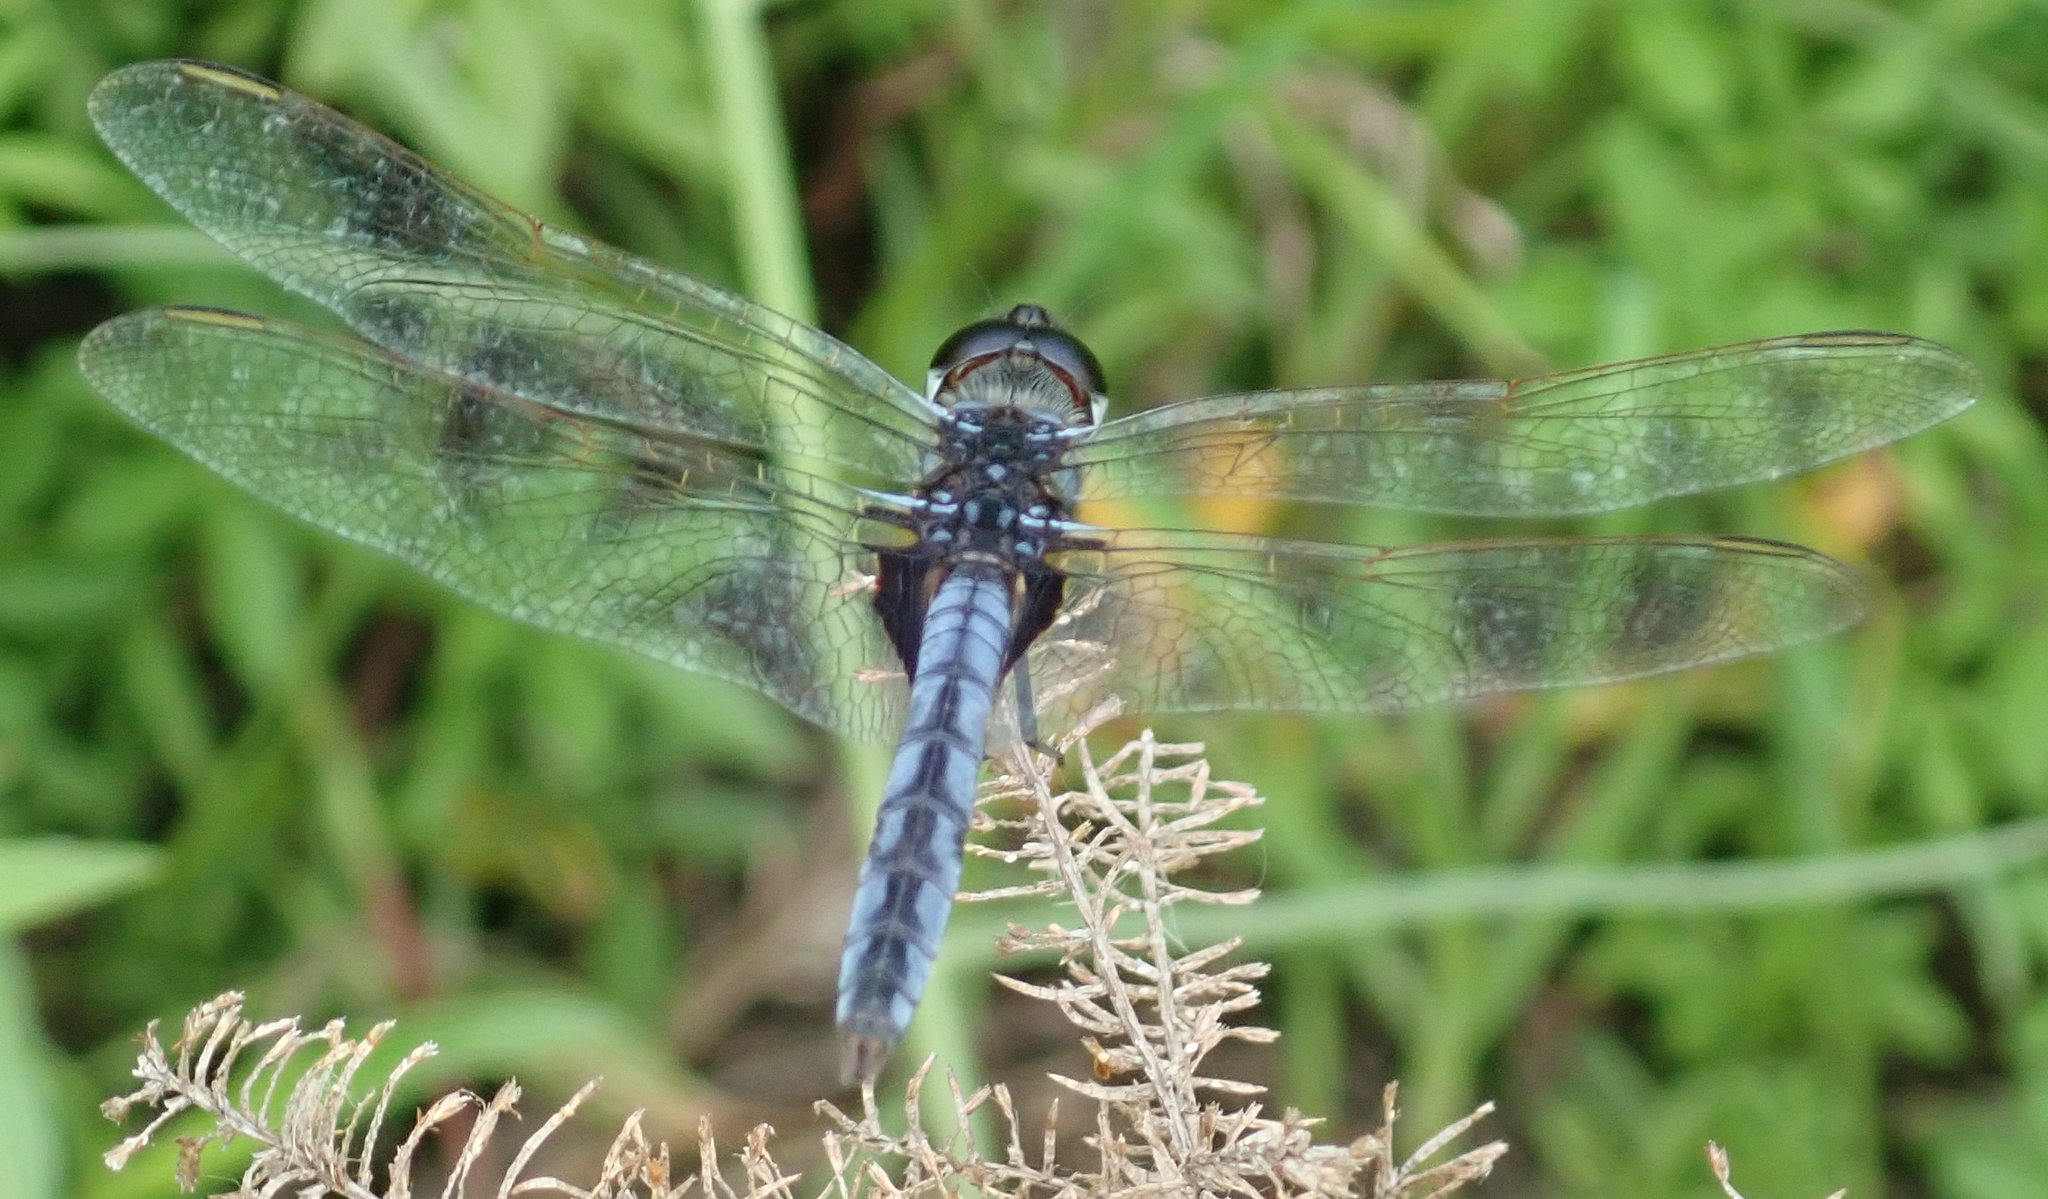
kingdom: Animalia
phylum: Arthropoda
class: Insecta
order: Odonata
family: Libellulidae
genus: Urothemis
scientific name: Urothemis edwardsii
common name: Blue basker
